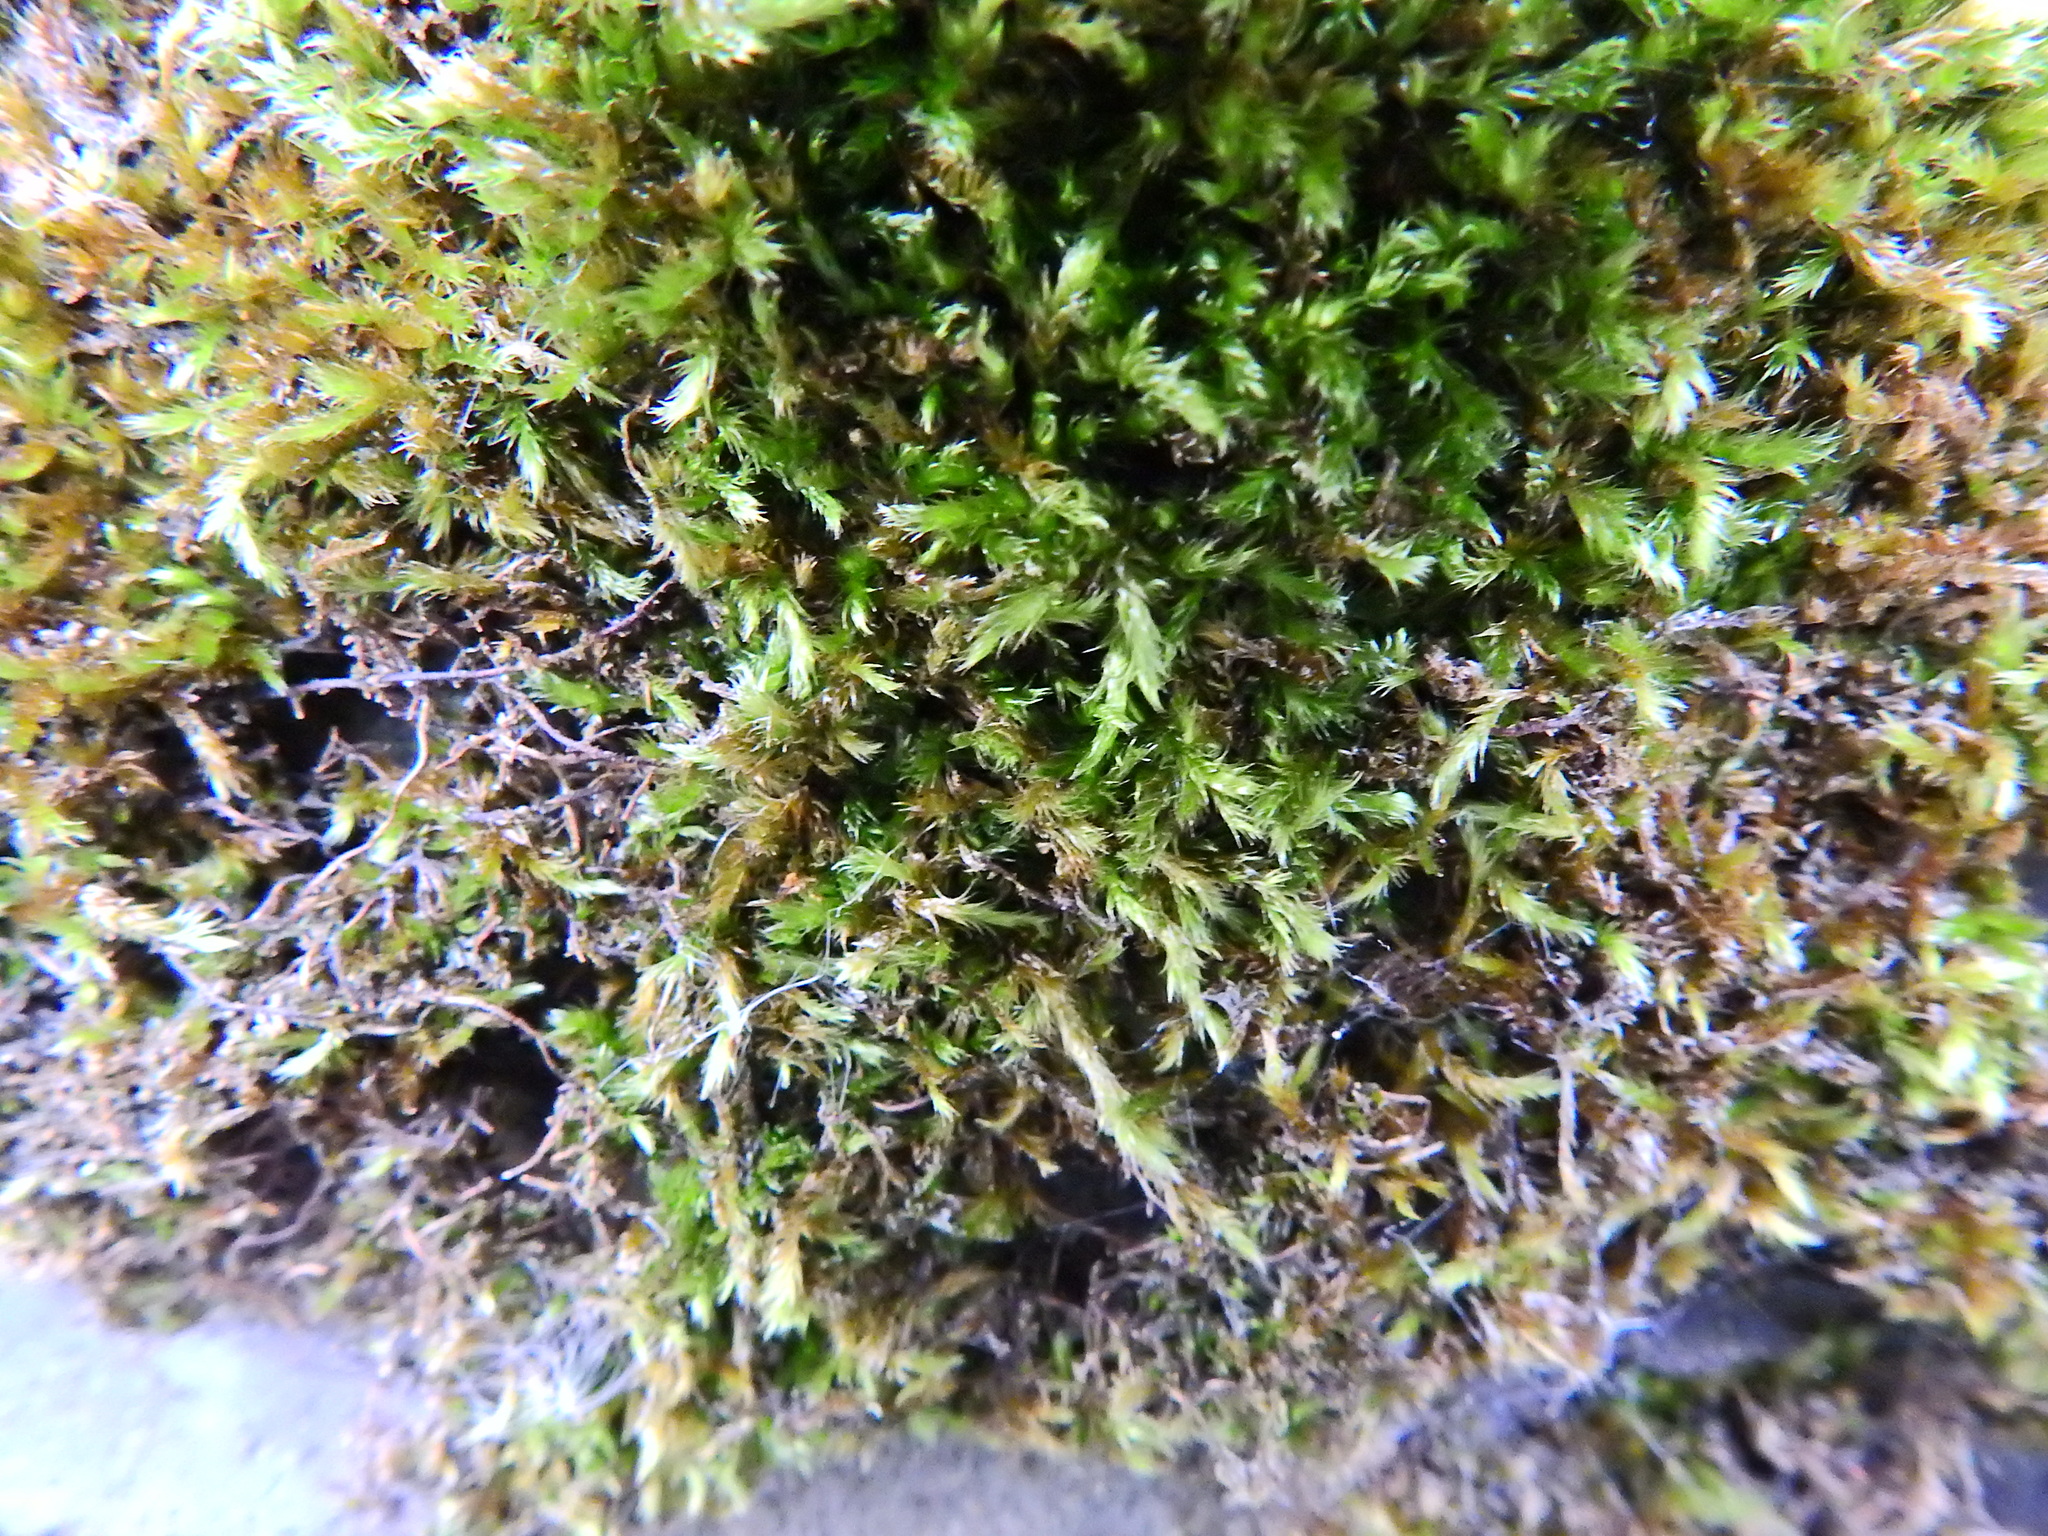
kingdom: Plantae
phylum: Bryophyta
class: Bryopsida
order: Hypnales
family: Brachytheciaceae
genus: Homalothecium
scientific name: Homalothecium sericeum
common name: Silky wall feather-moss
